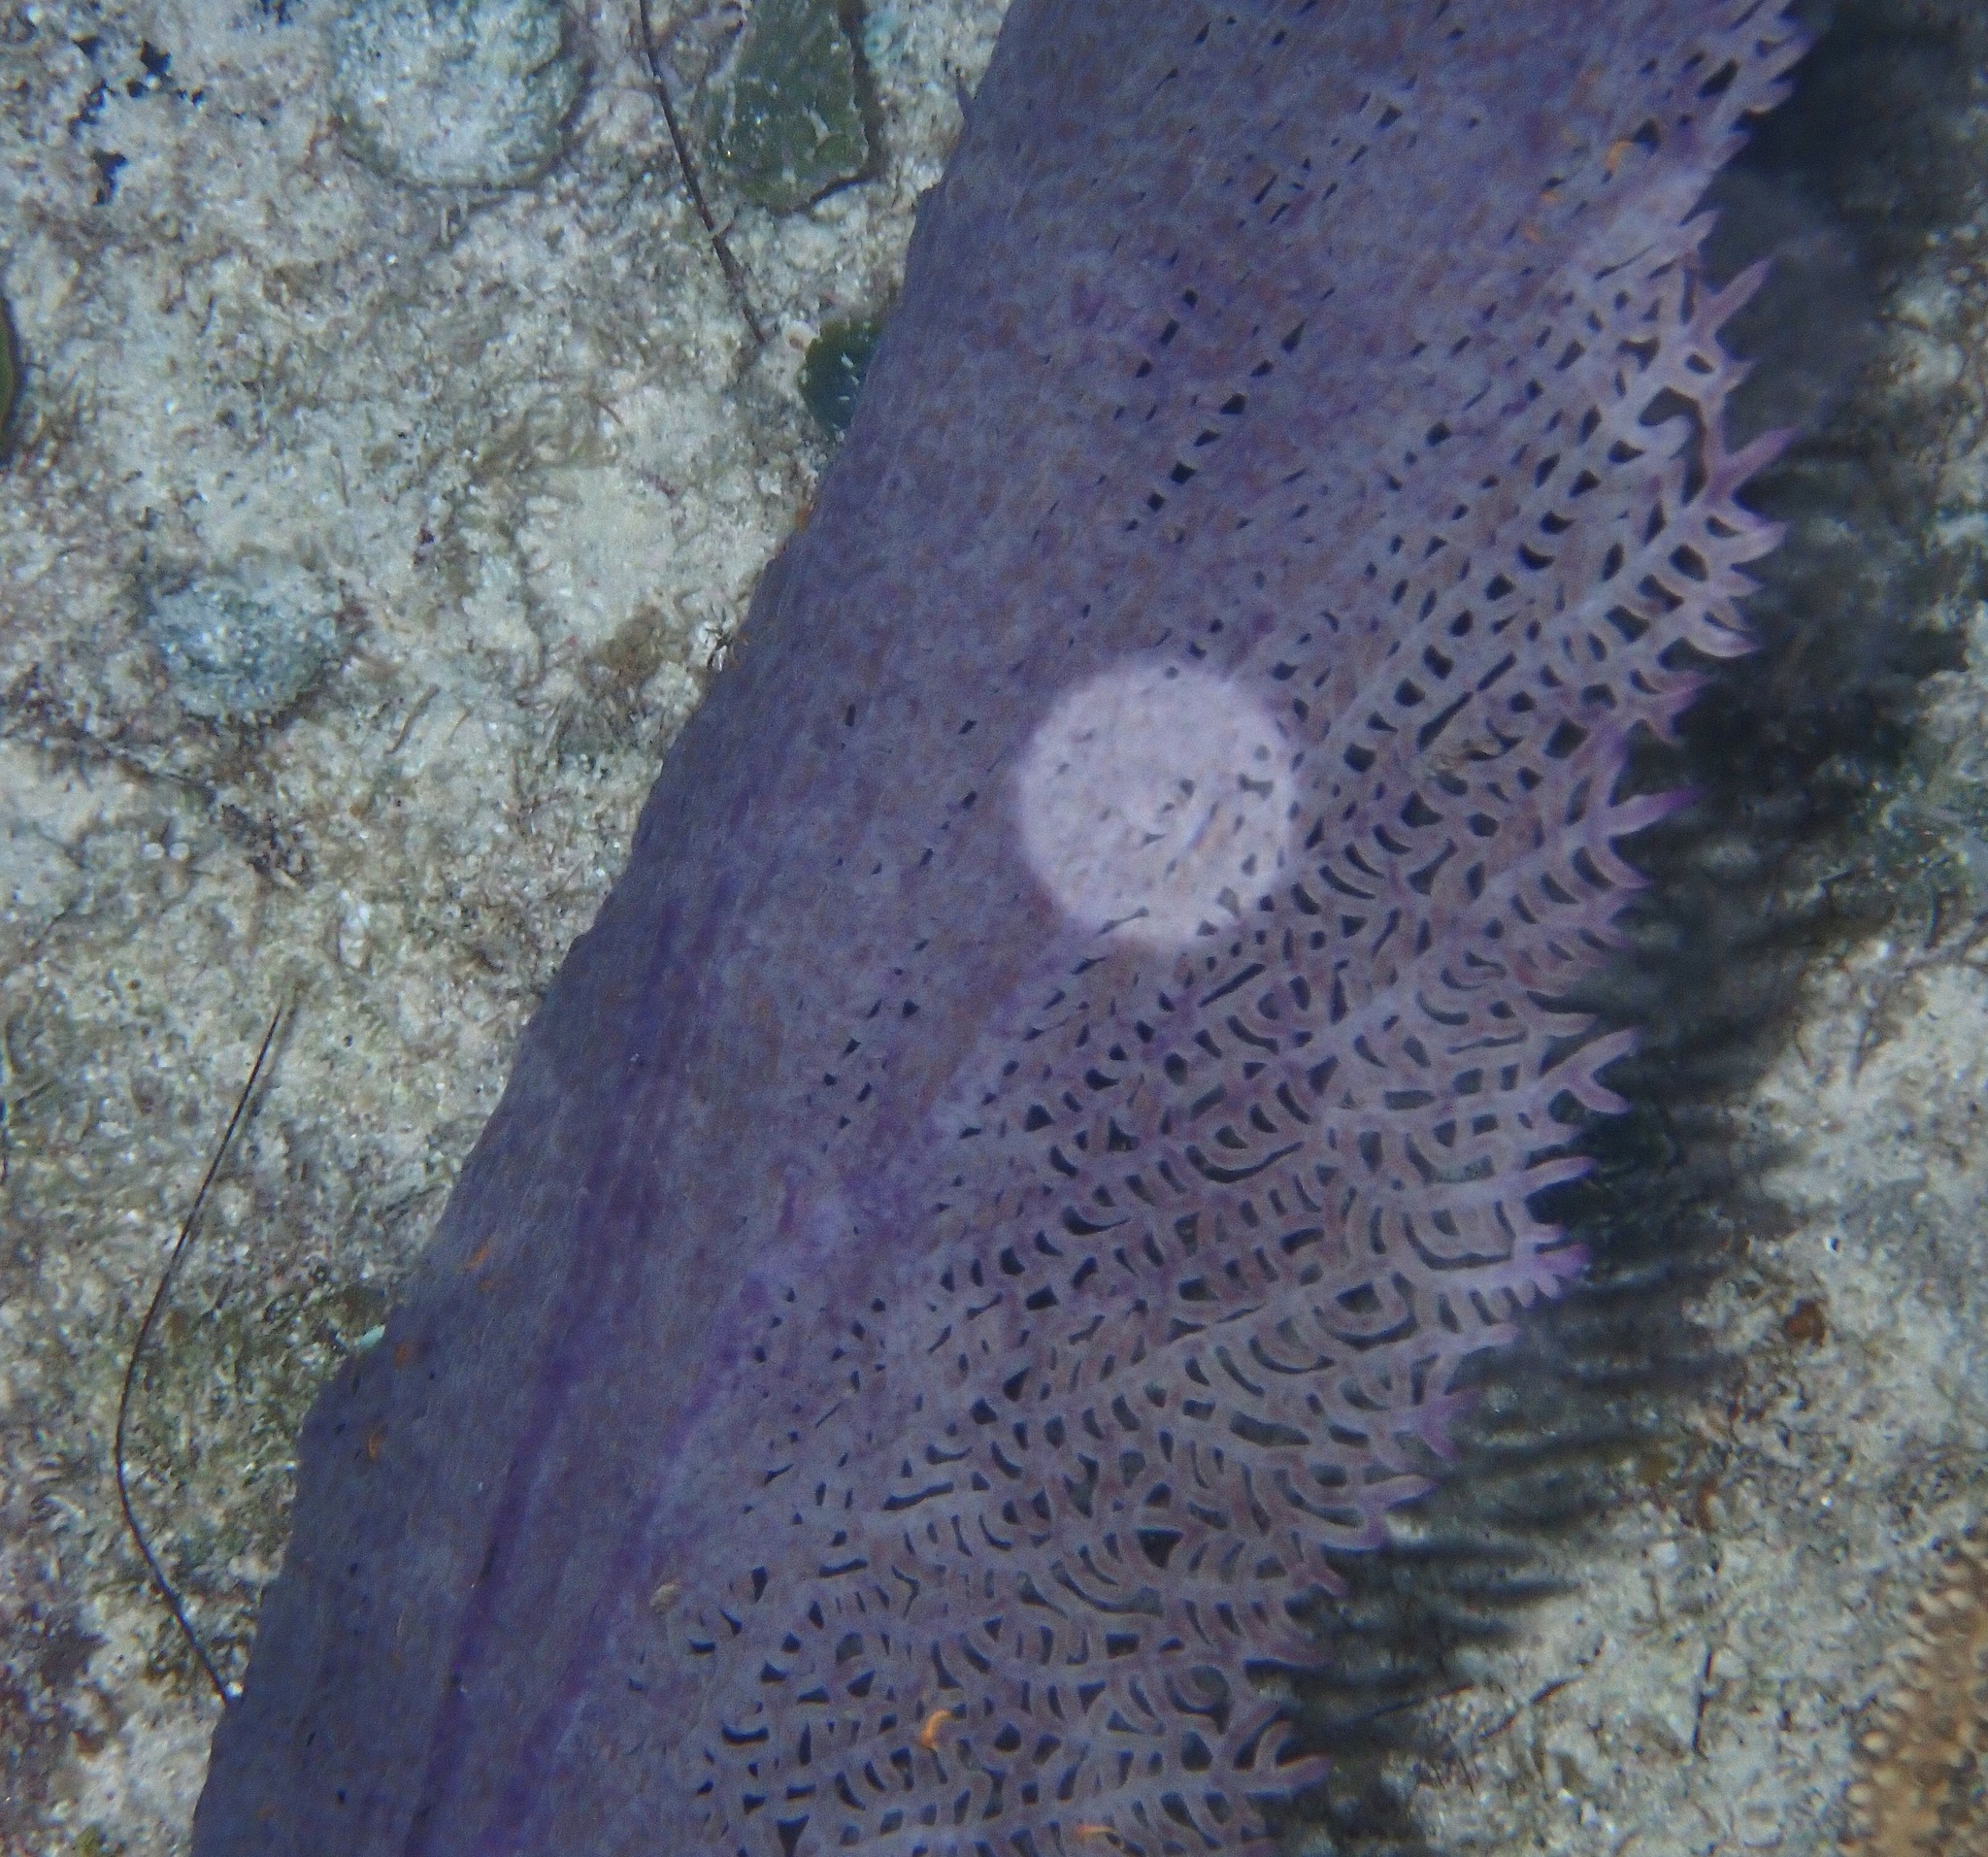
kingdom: Animalia
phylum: Cnidaria
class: Anthozoa
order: Malacalcyonacea
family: Gorgoniidae
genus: Gorgonia
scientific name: Gorgonia ventalina
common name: Common sea fan
